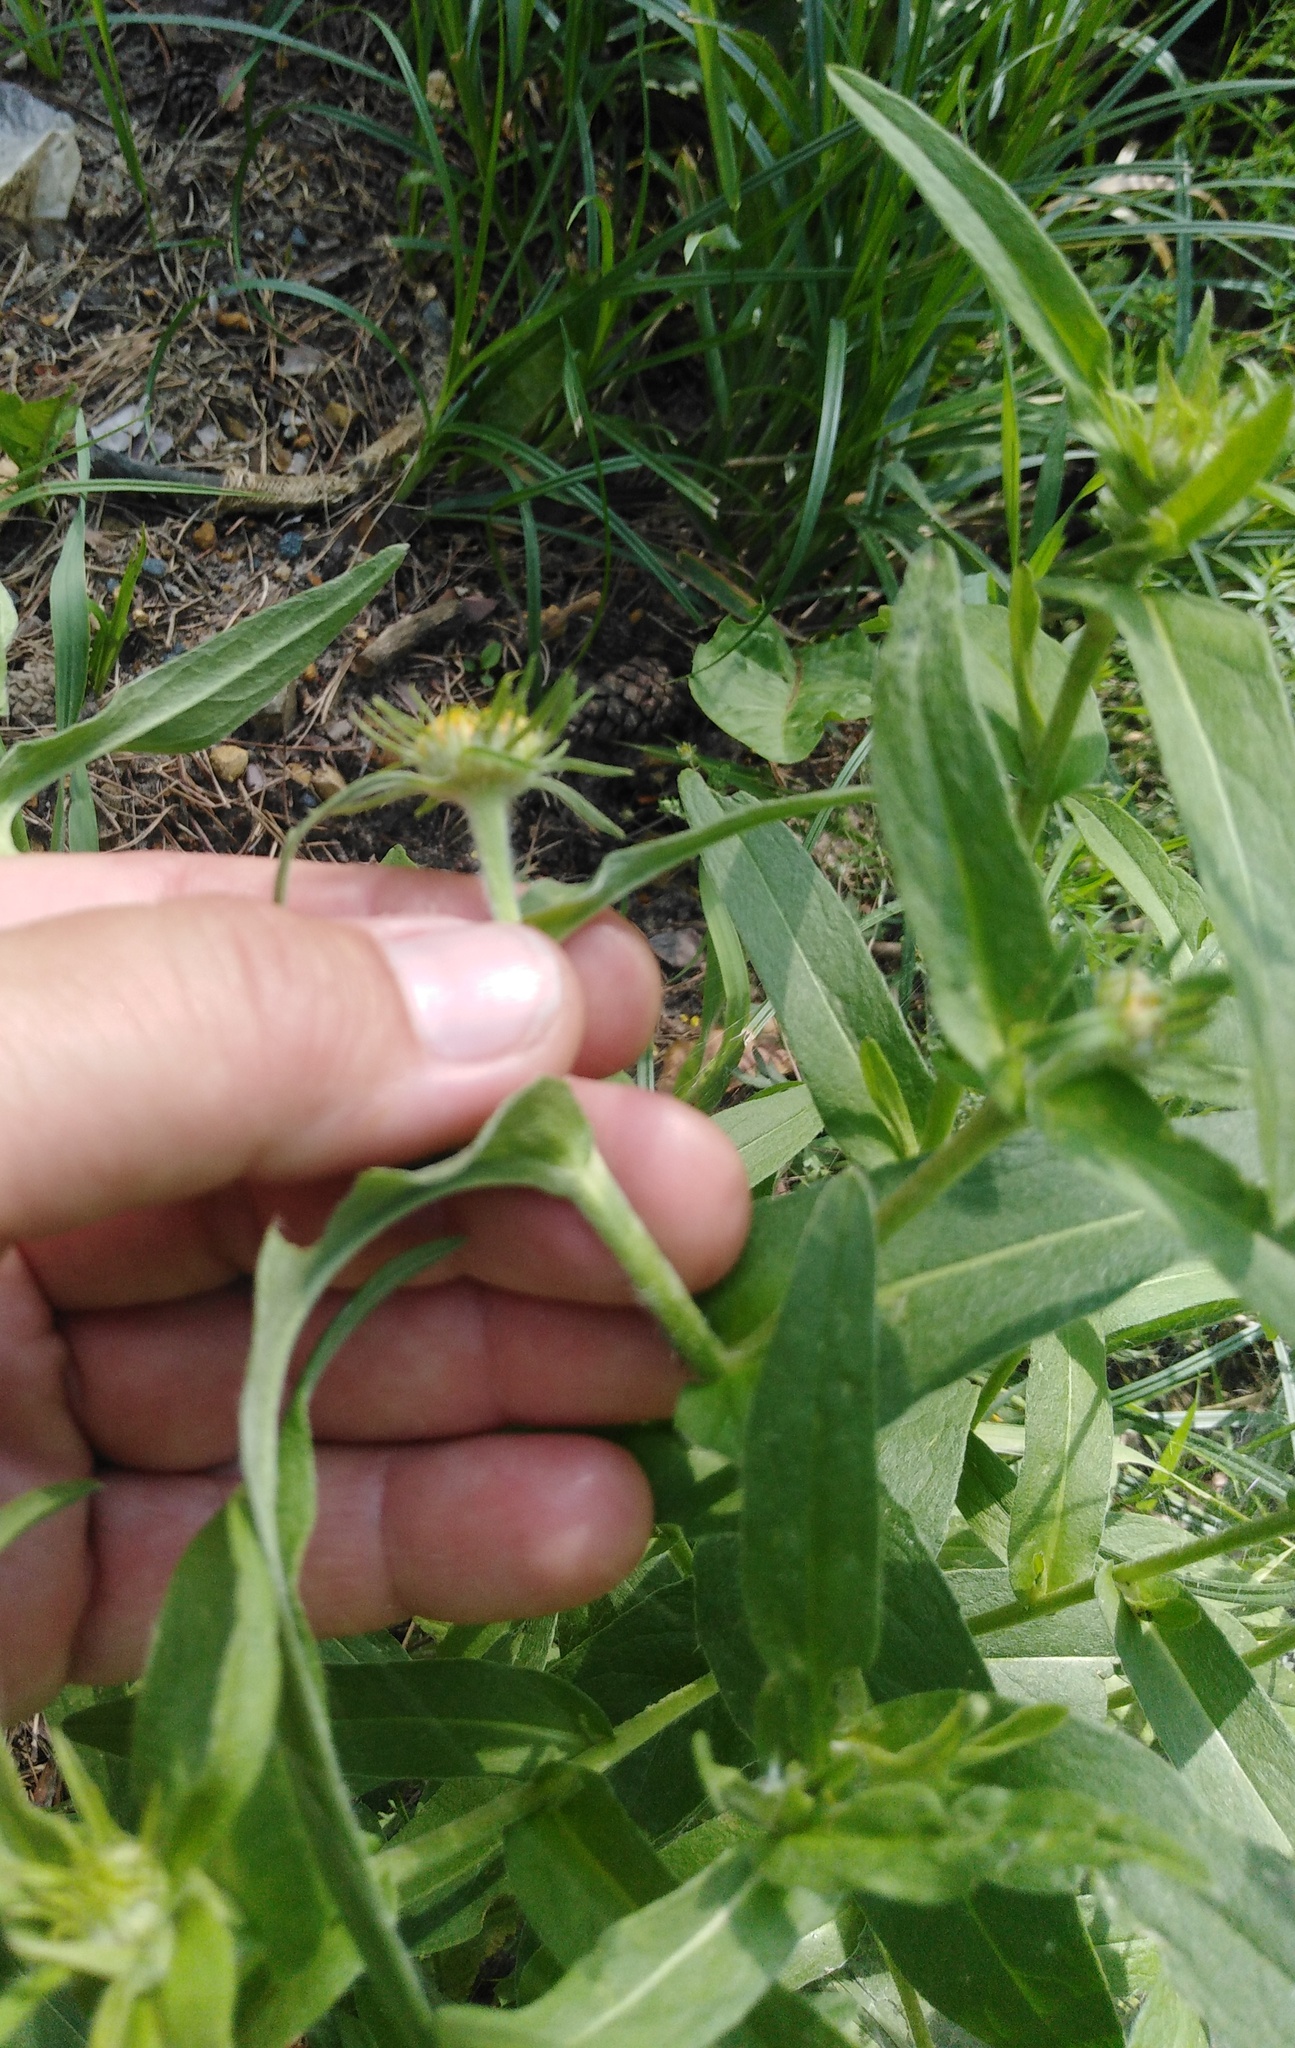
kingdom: Plantae
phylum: Tracheophyta
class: Magnoliopsida
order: Asterales
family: Asteraceae
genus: Pentanema
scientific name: Pentanema britannicum
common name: British elecampane
